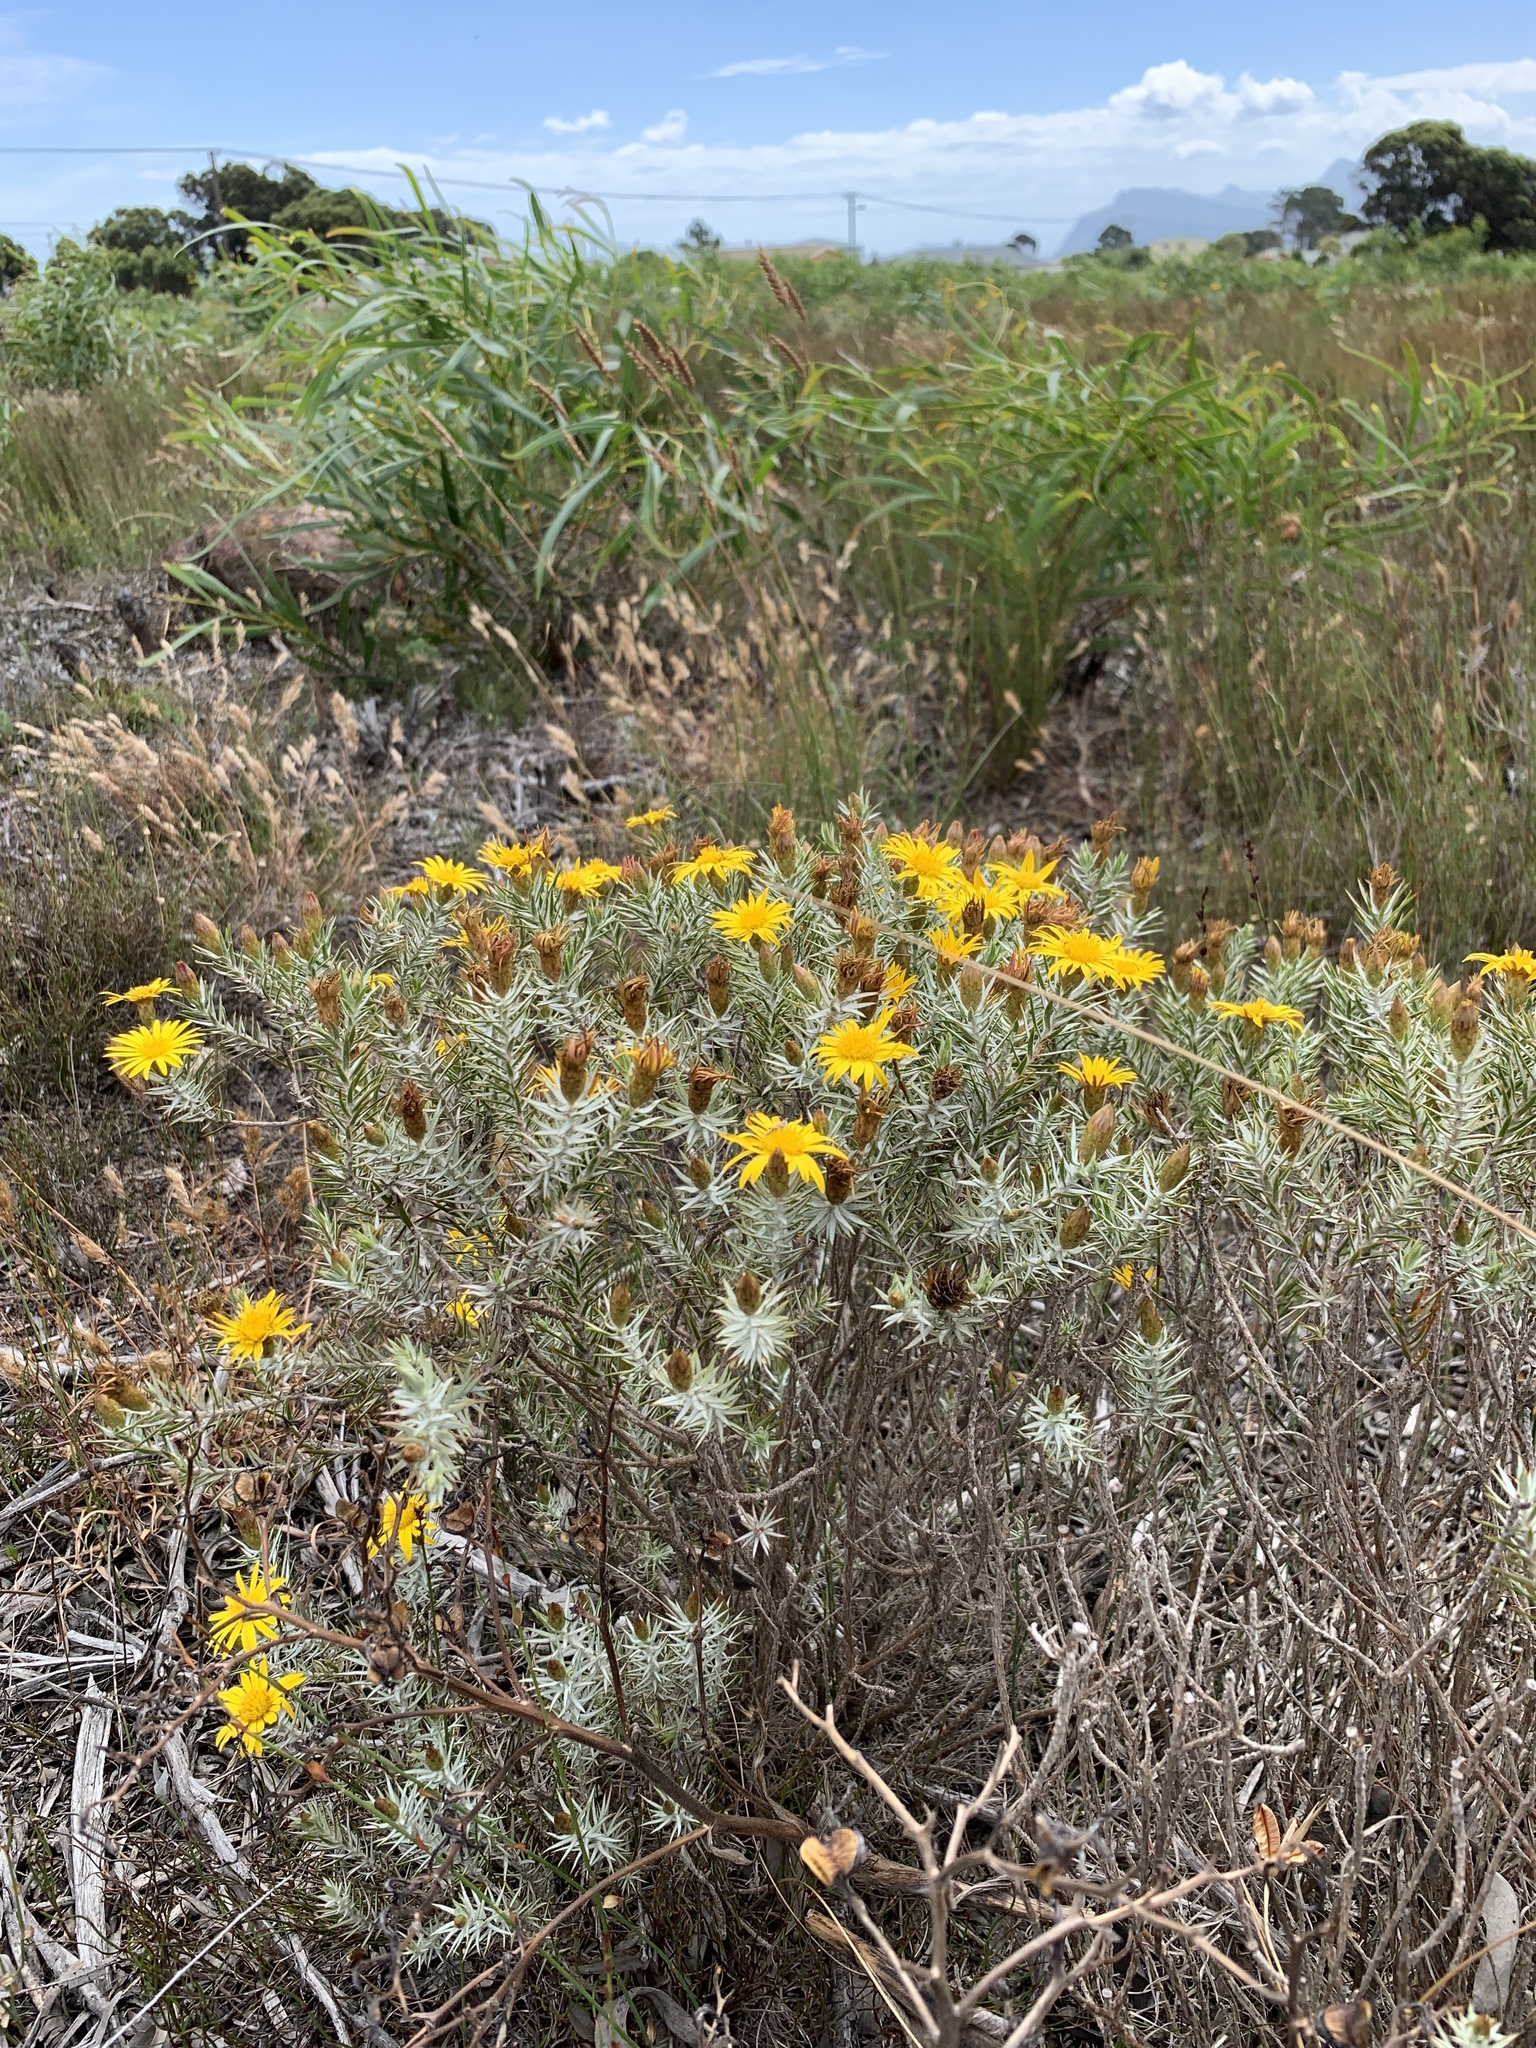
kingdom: Plantae
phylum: Tracheophyta
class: Magnoliopsida
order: Asterales
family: Asteraceae
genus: Oedera
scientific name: Oedera pungens
